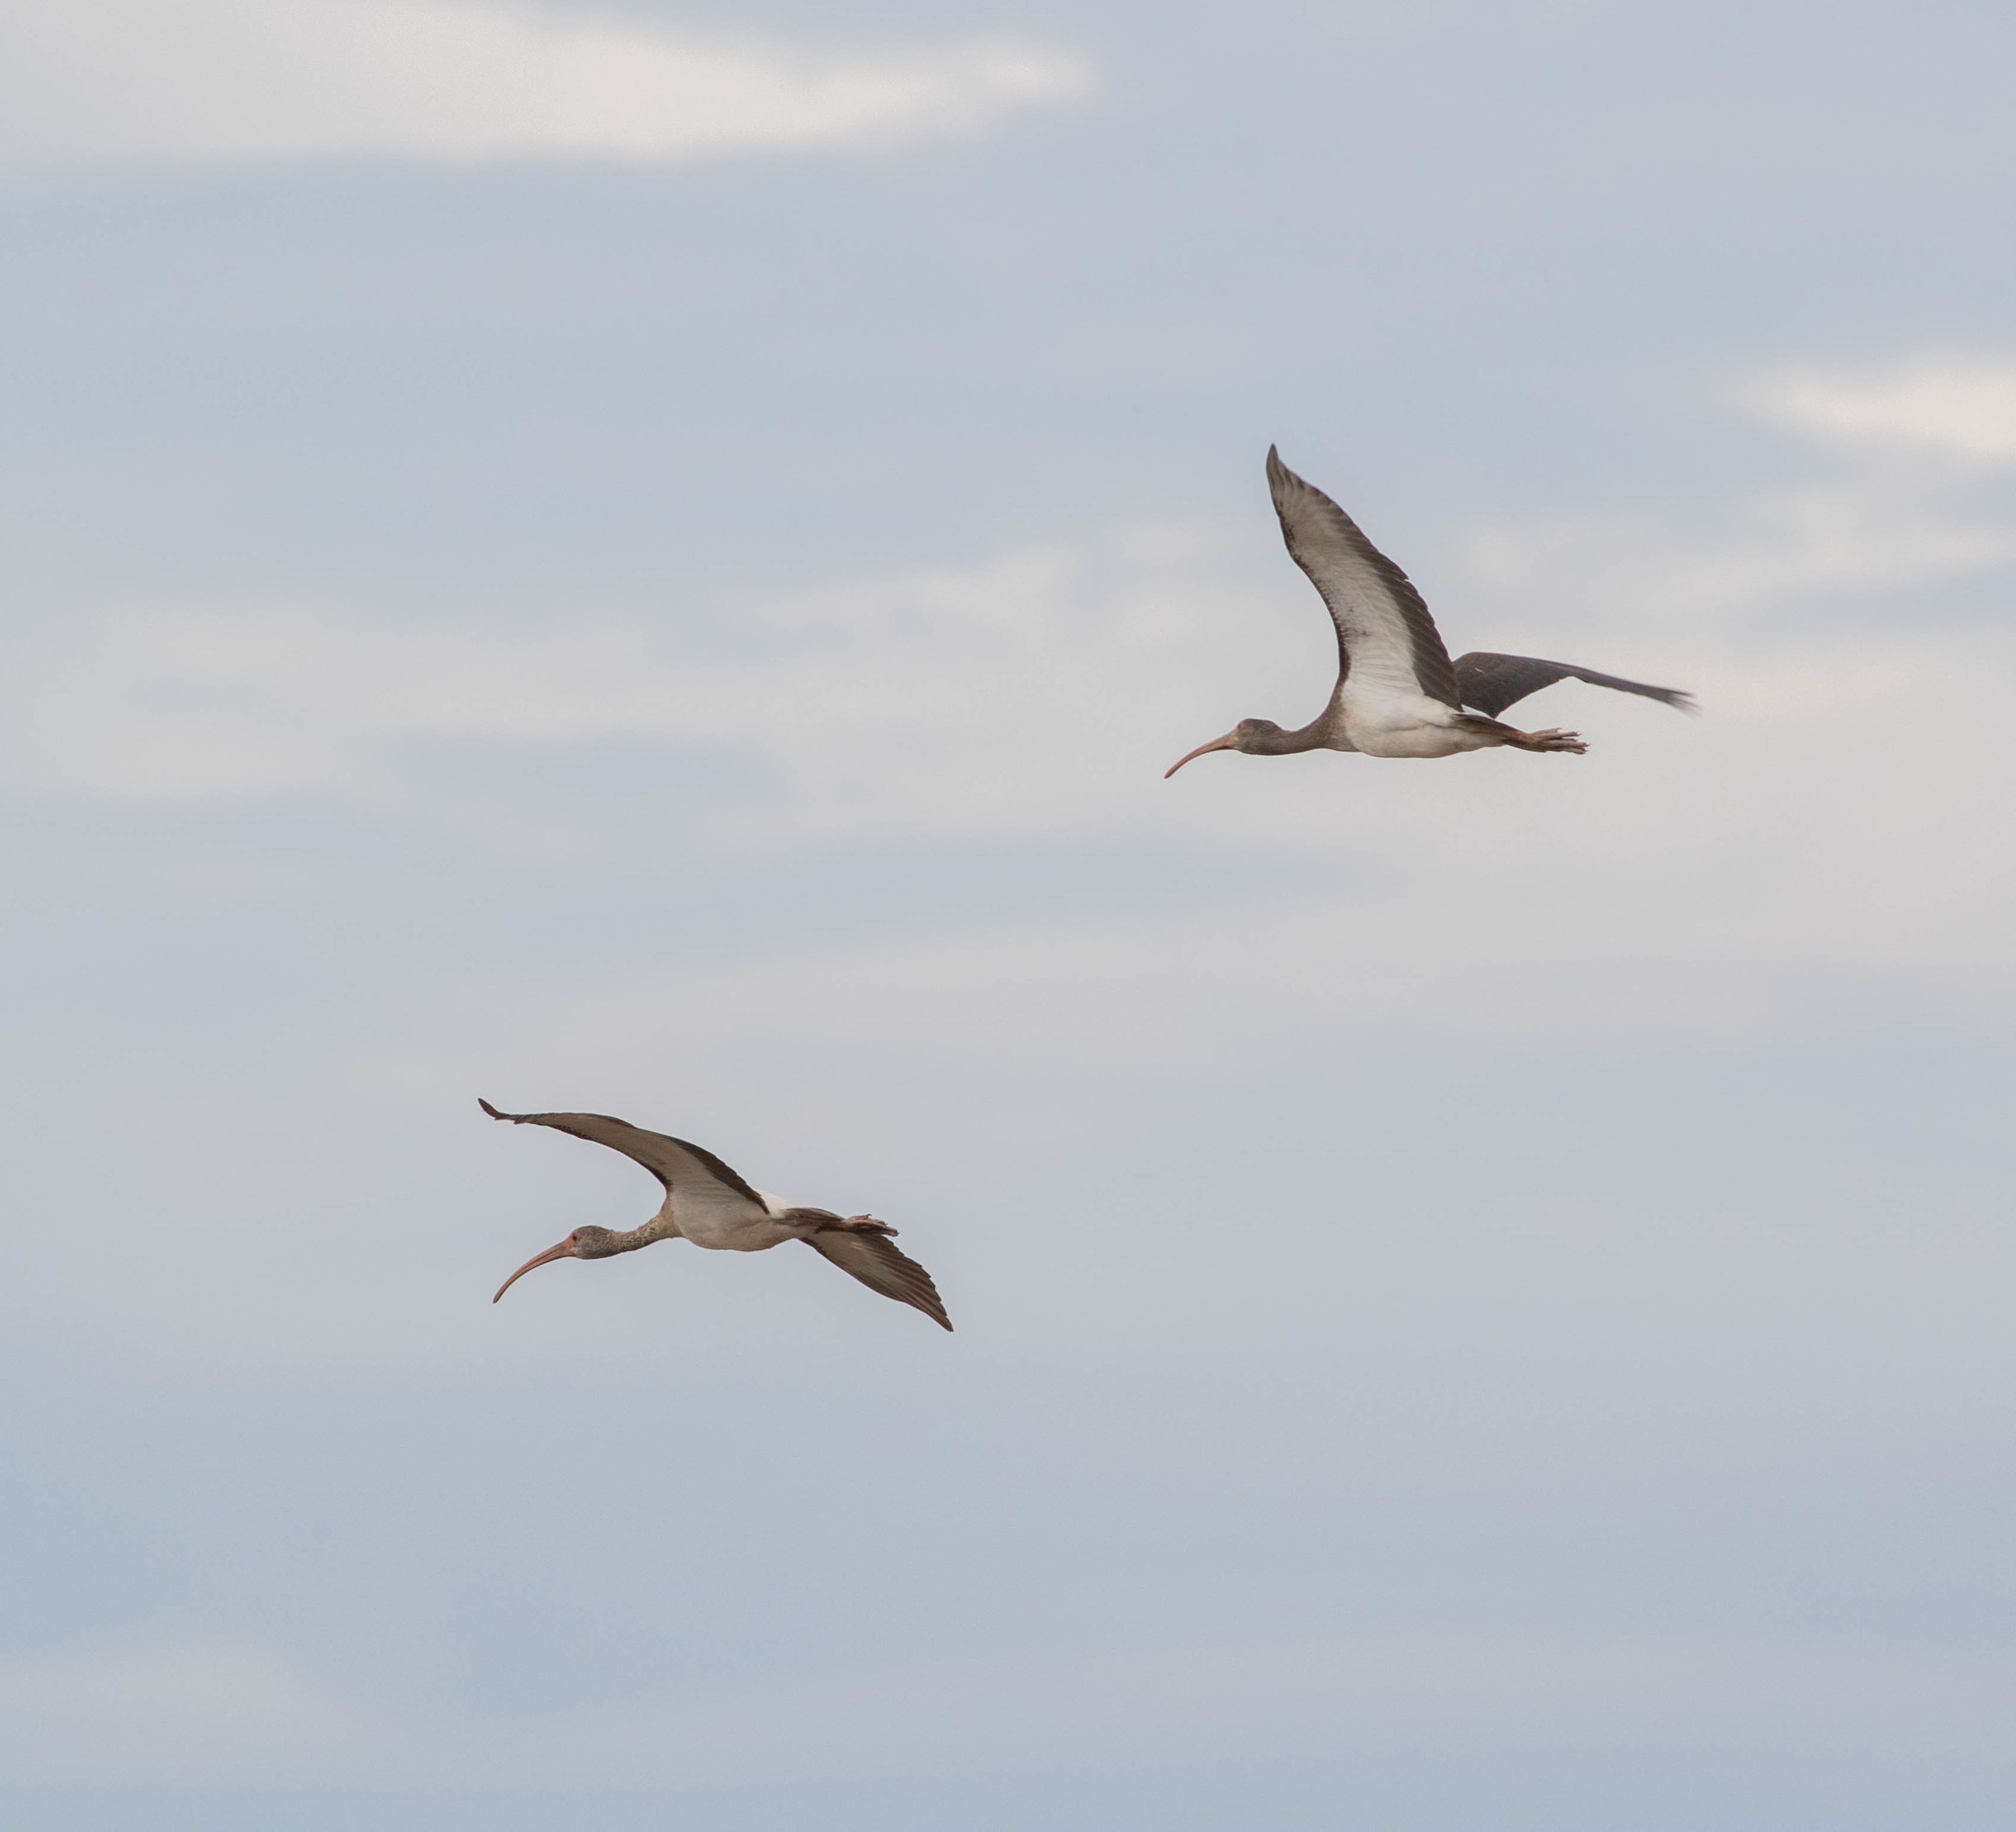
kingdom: Animalia
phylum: Chordata
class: Aves
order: Pelecaniformes
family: Threskiornithidae
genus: Eudocimus
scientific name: Eudocimus albus
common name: White ibis
